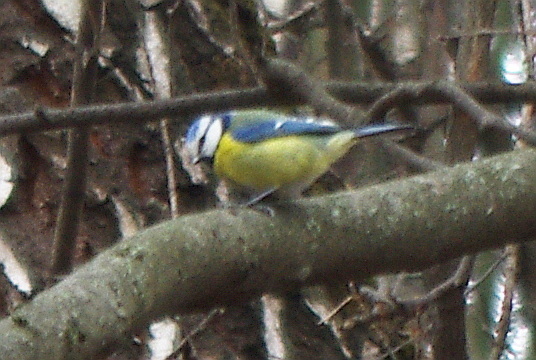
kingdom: Animalia
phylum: Chordata
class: Aves
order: Passeriformes
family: Paridae
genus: Cyanistes
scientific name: Cyanistes caeruleus
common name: Eurasian blue tit
